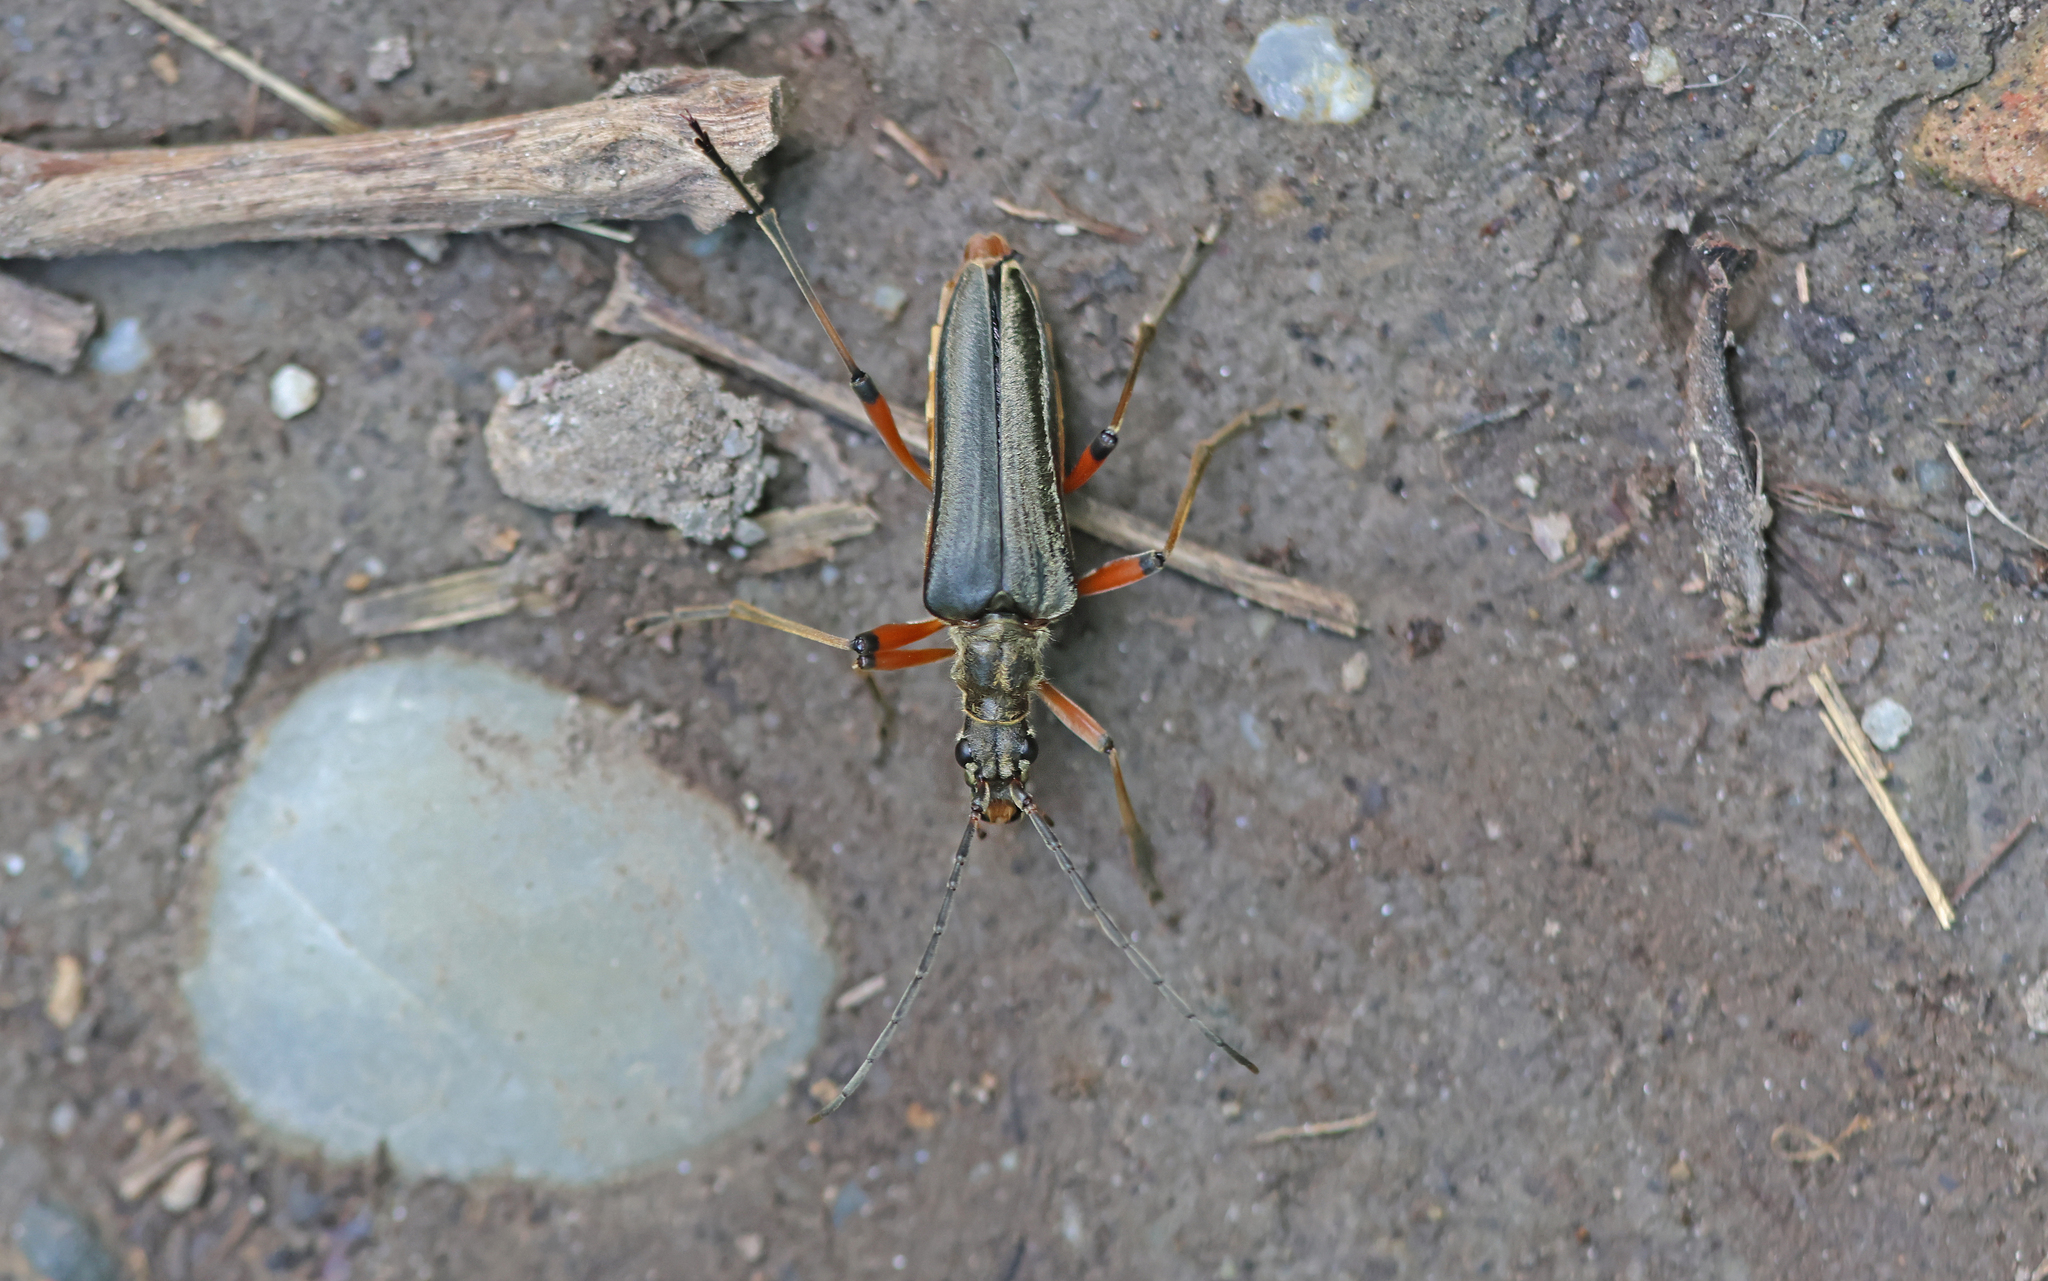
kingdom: Animalia
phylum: Arthropoda
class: Insecta
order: Coleoptera
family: Cerambycidae
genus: Stenocorus
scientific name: Stenocorus meridianus
